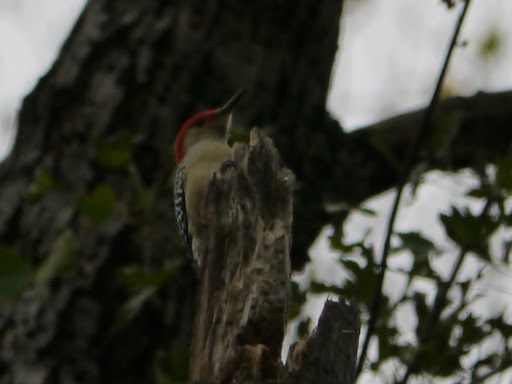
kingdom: Animalia
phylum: Chordata
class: Aves
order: Piciformes
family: Picidae
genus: Melanerpes
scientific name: Melanerpes carolinus
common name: Red-bellied woodpecker
